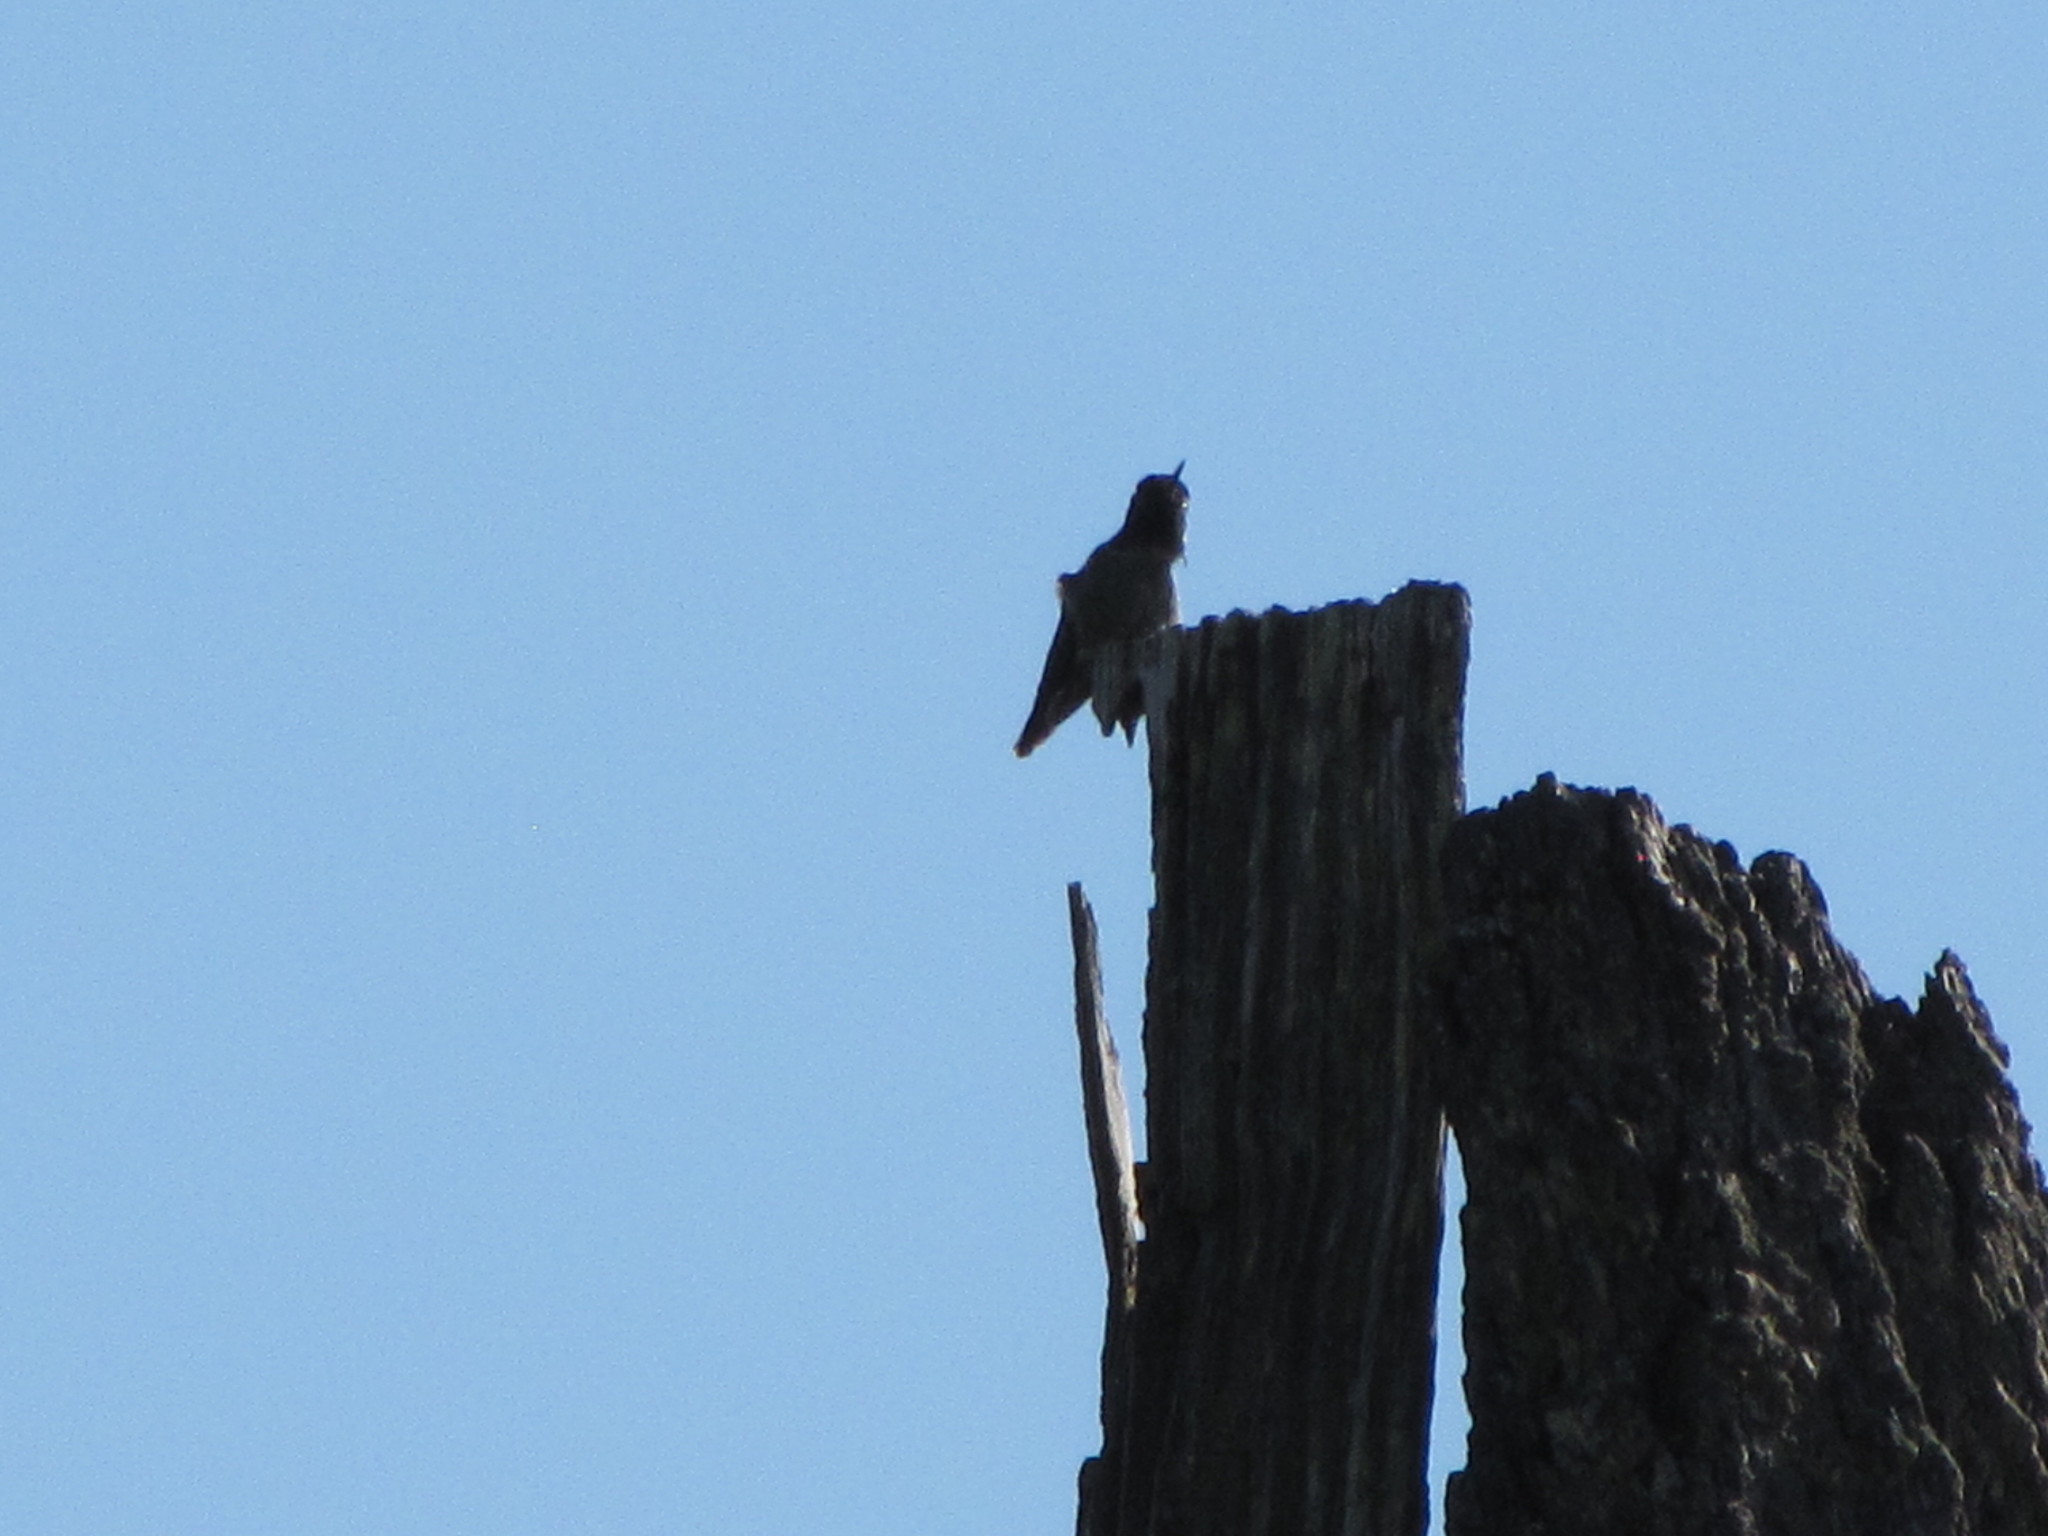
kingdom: Animalia
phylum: Chordata
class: Aves
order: Apodiformes
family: Trochilidae
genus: Calypte
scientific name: Calypte anna
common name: Anna's hummingbird
